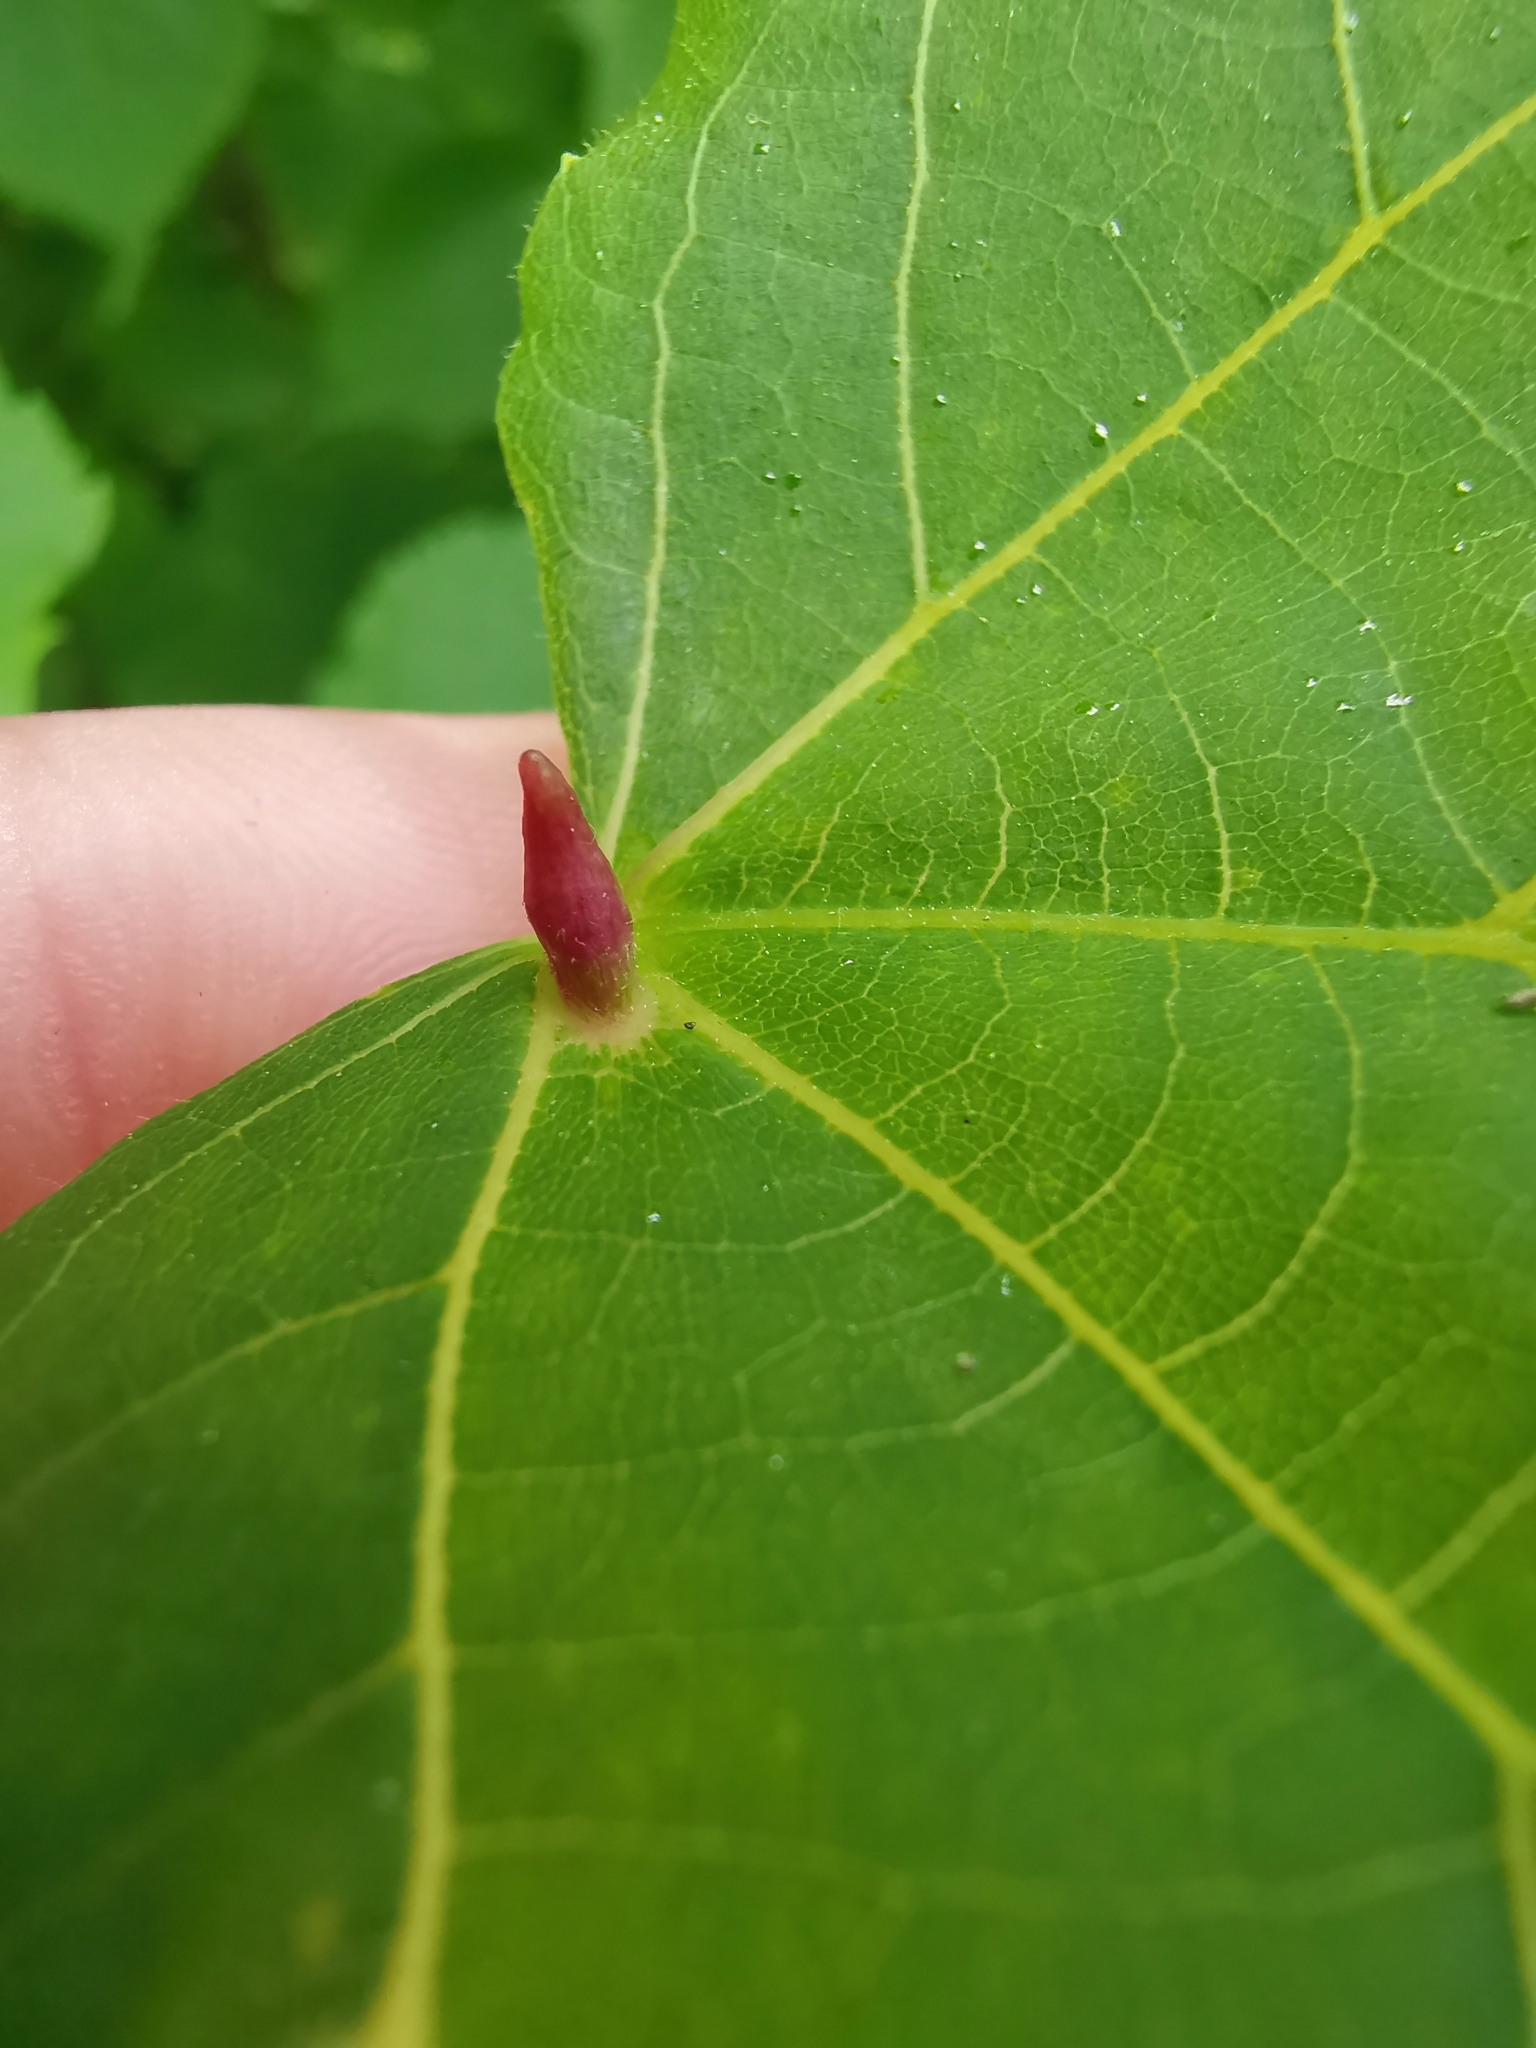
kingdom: Animalia
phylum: Arthropoda
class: Arachnida
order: Trombidiformes
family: Eriophyidae
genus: Eriophyes
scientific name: Eriophyes tiliae
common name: Red nail gall mite
